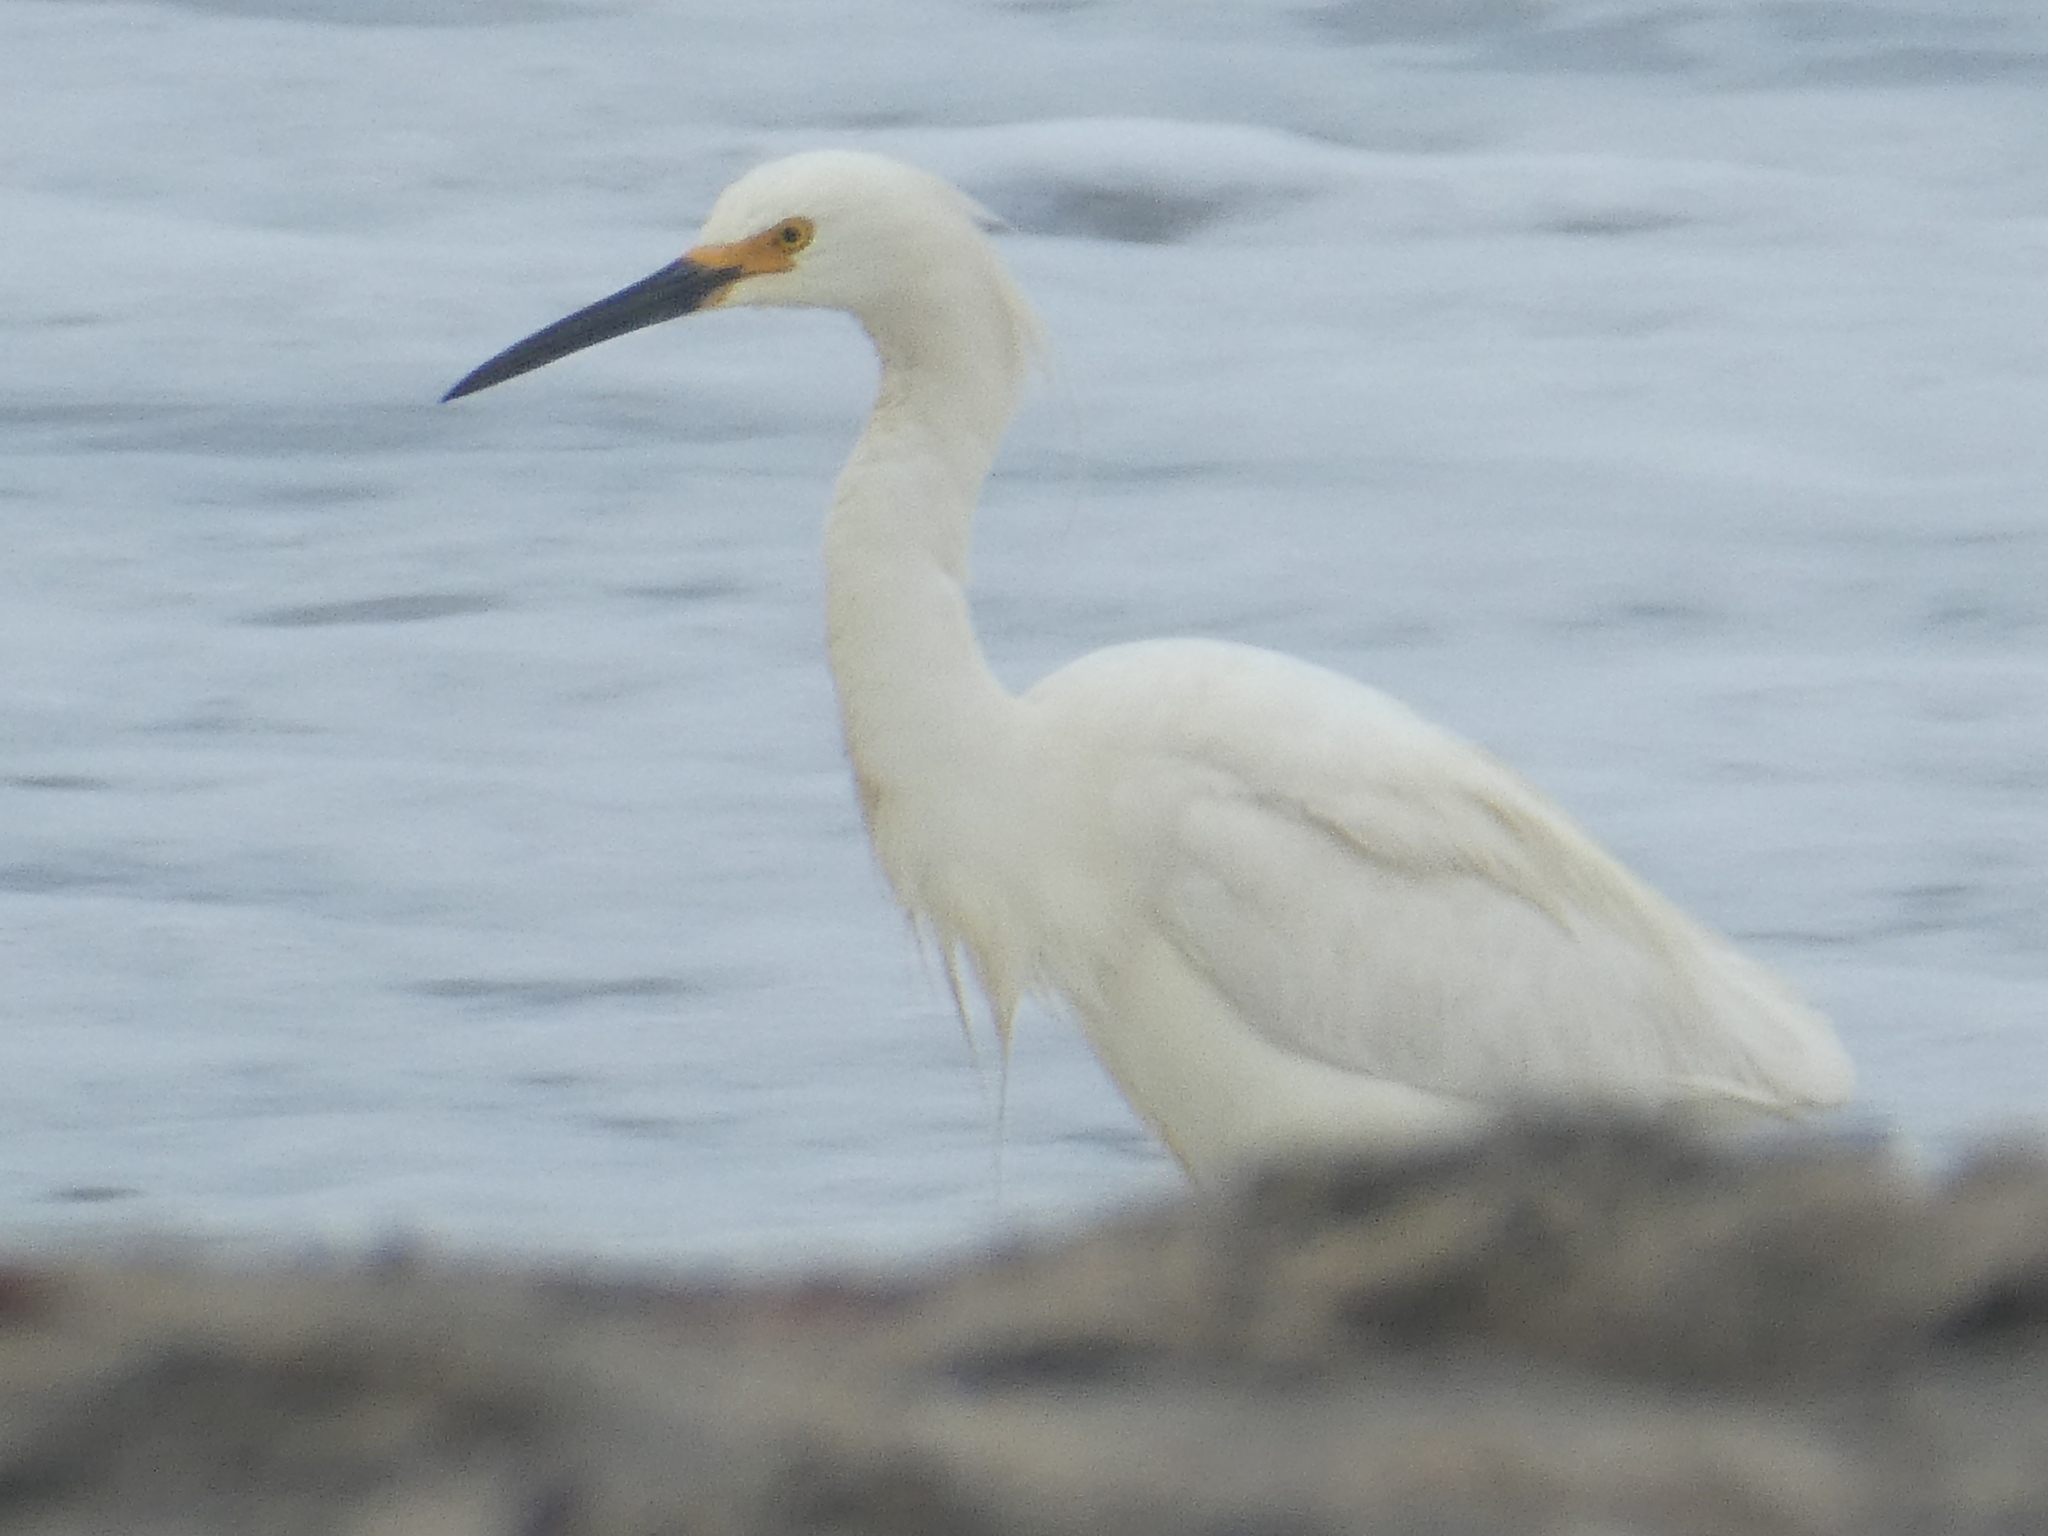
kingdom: Animalia
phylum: Chordata
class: Aves
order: Pelecaniformes
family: Ardeidae
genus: Egretta
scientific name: Egretta thula
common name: Snowy egret
